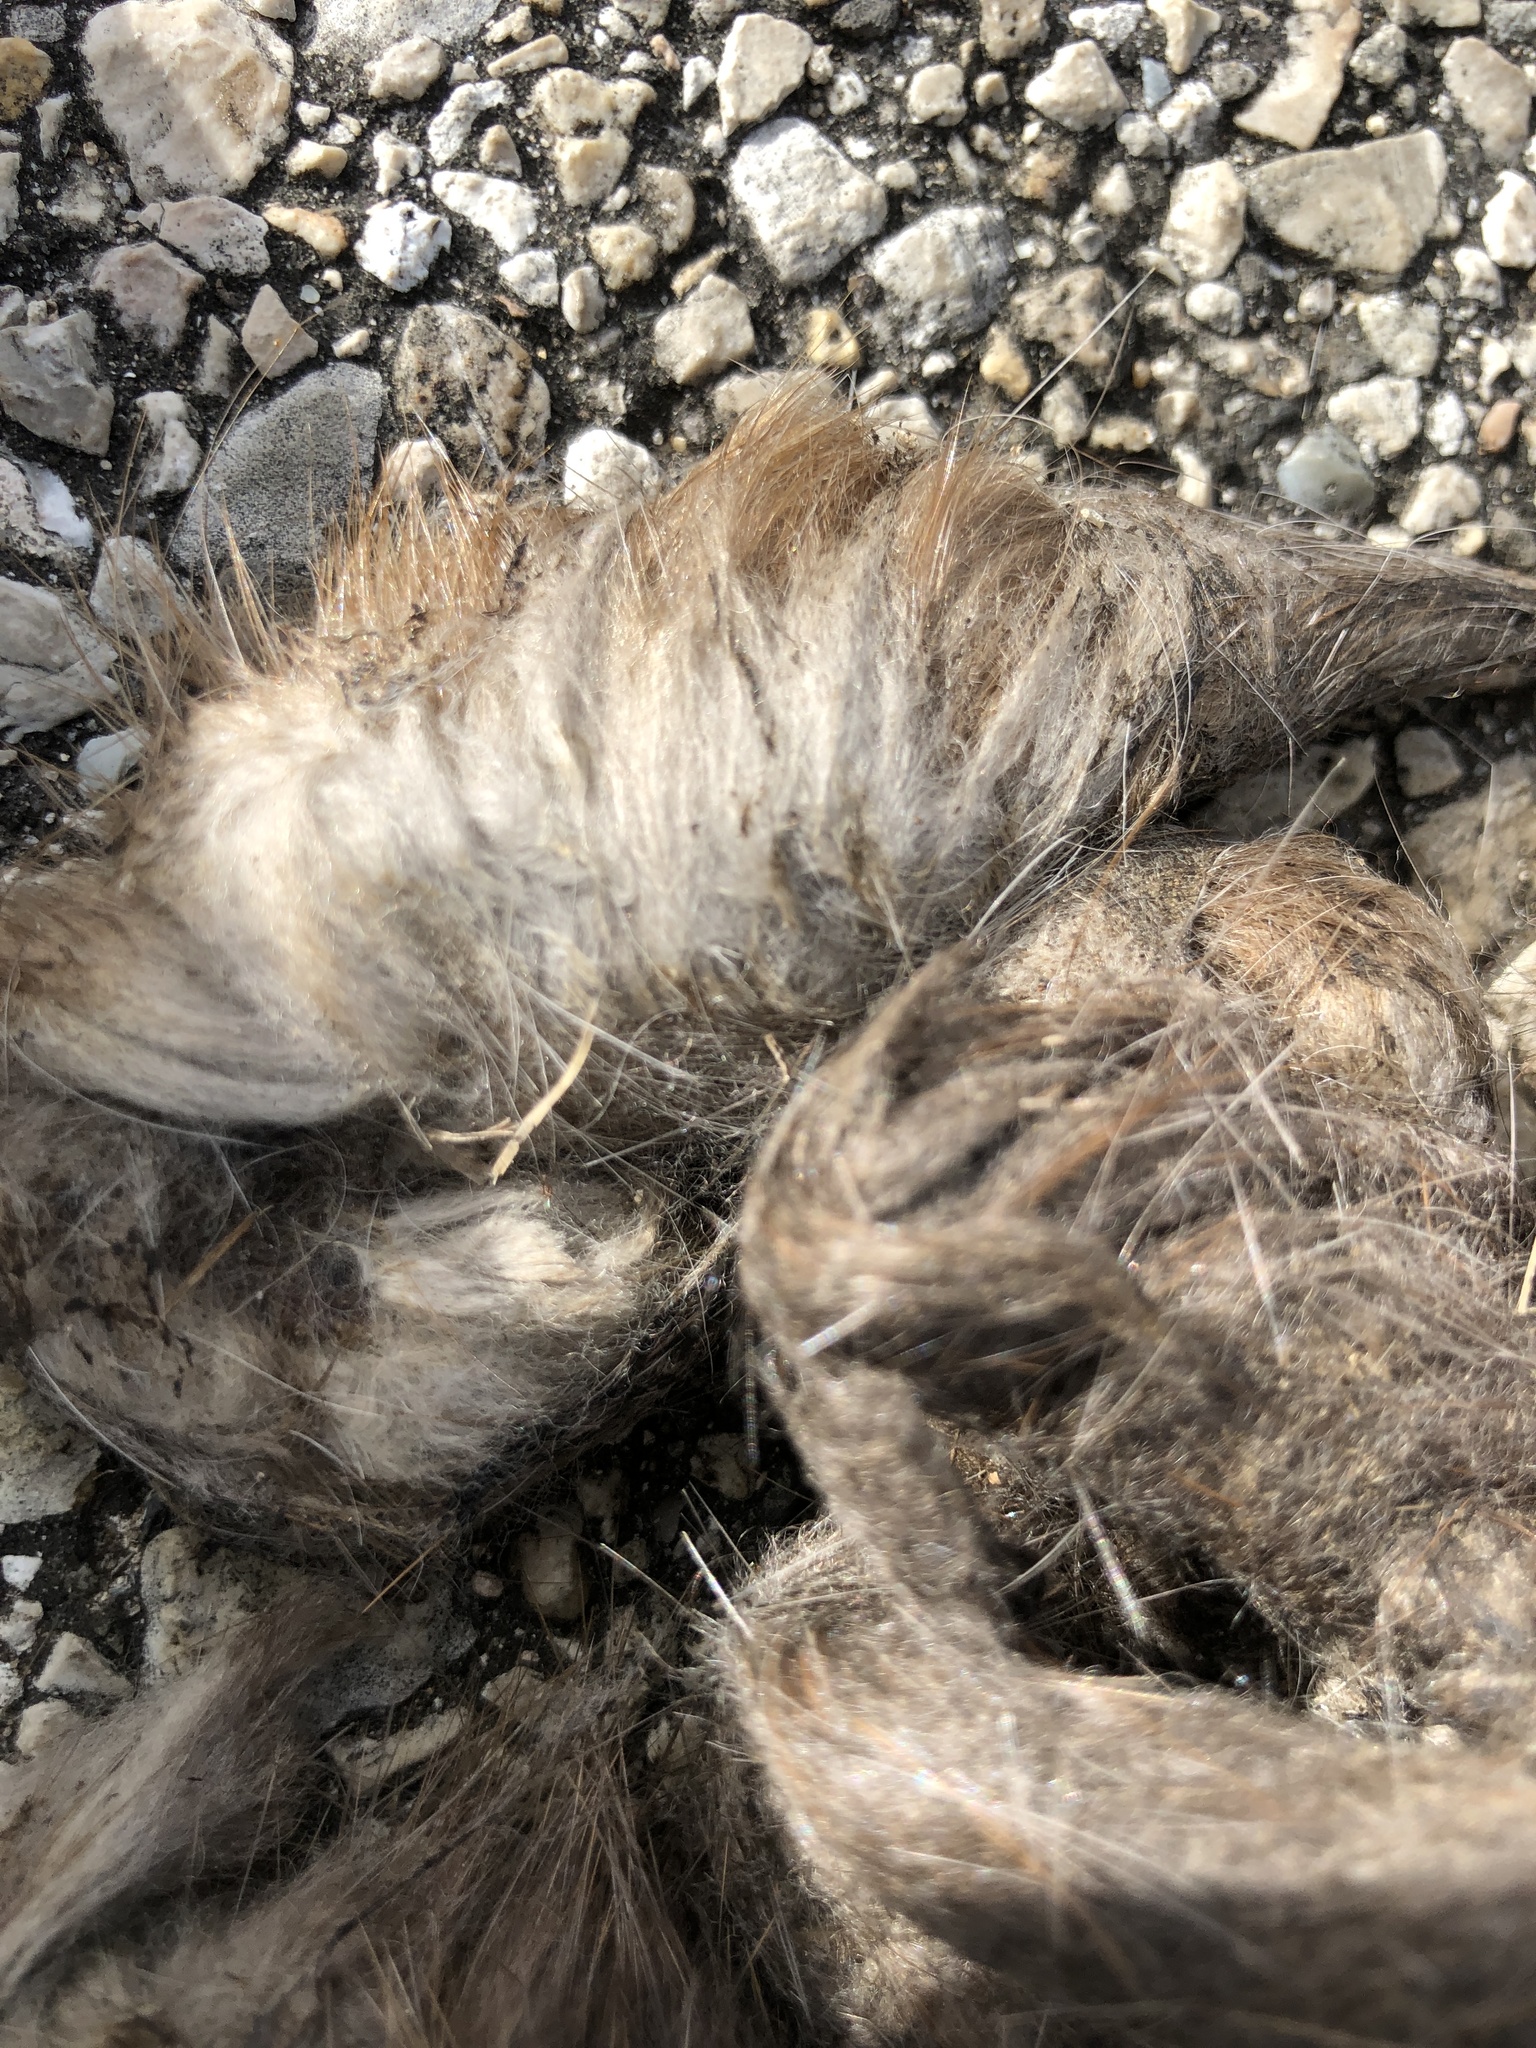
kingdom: Animalia
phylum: Chordata
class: Mammalia
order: Carnivora
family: Canidae
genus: Canis
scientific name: Canis latrans
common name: Coyote
